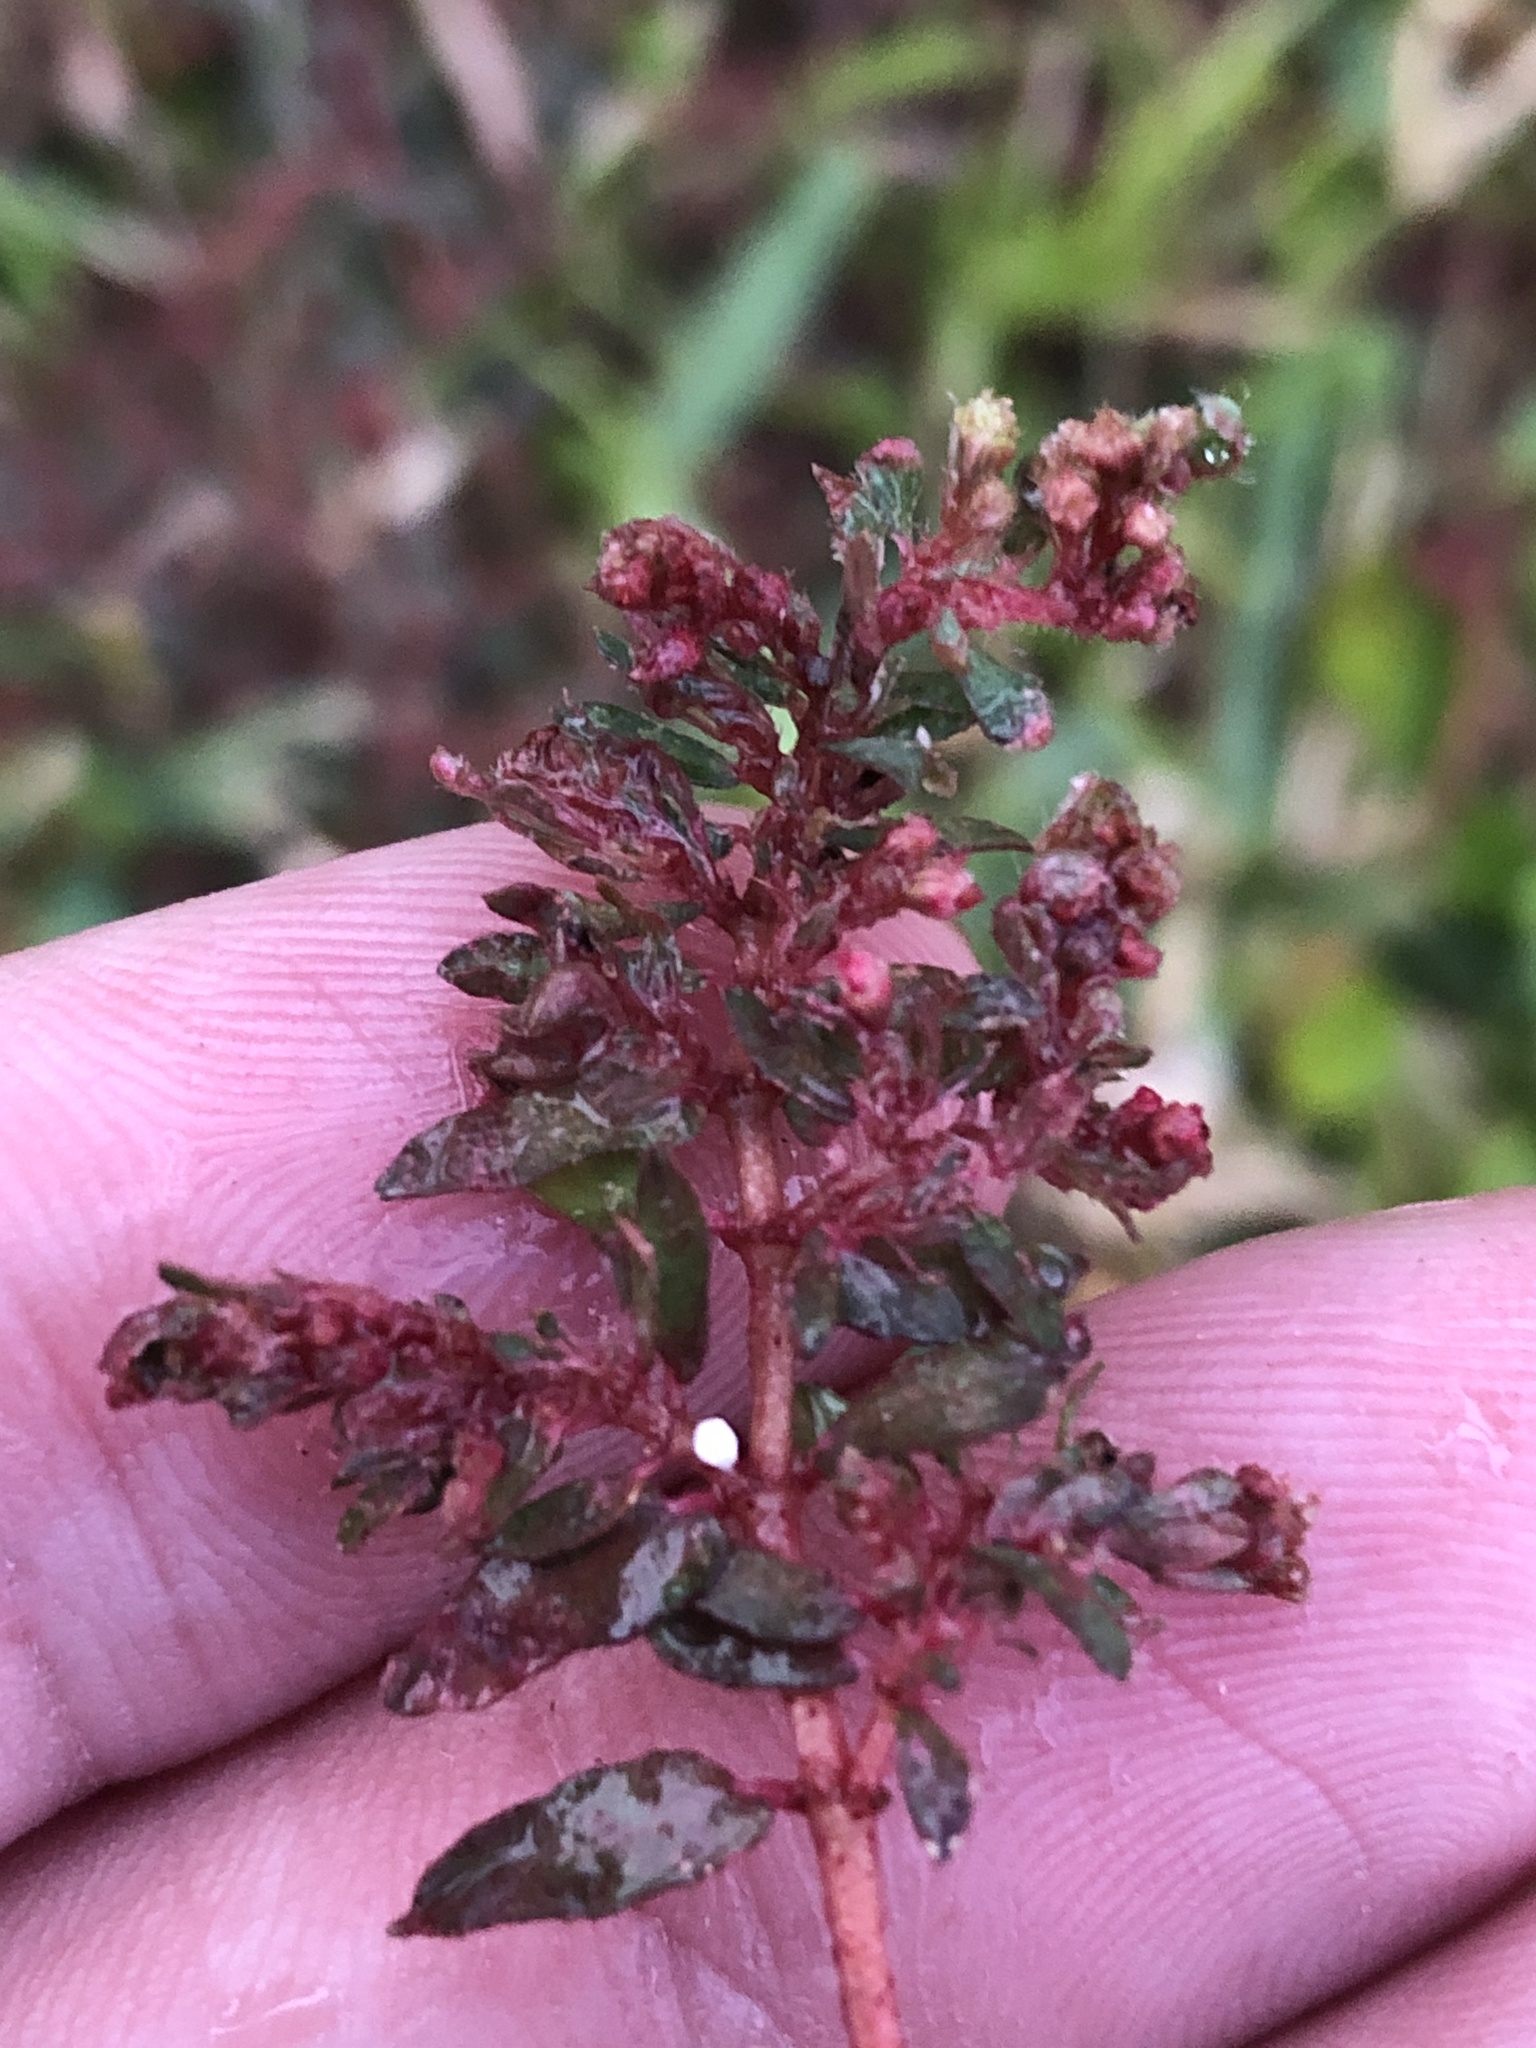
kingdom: Plantae
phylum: Tracheophyta
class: Magnoliopsida
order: Malpighiales
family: Euphorbiaceae
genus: Euphorbia
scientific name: Euphorbia maculata
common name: Spotted spurge
